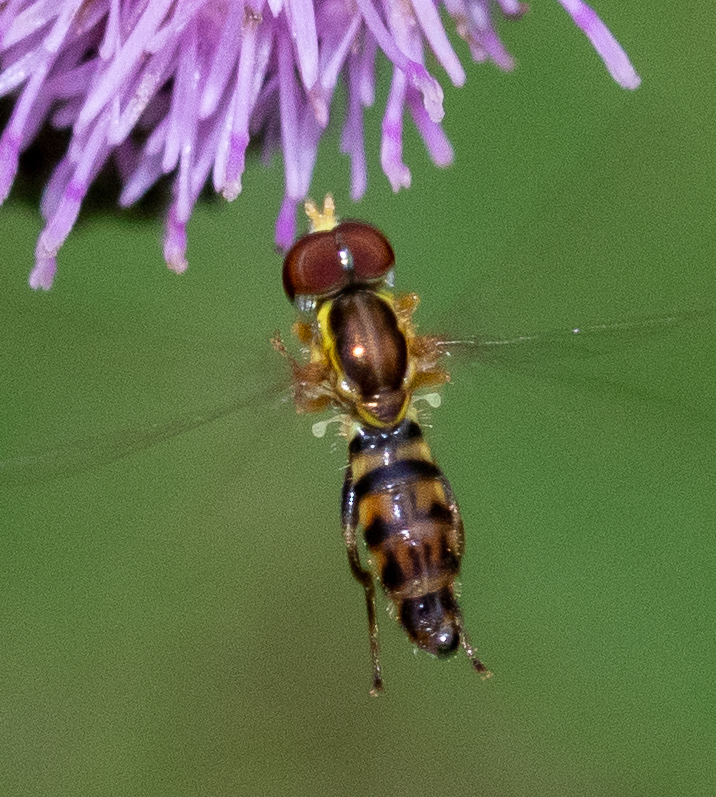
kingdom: Animalia
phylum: Arthropoda
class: Insecta
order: Diptera
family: Syrphidae
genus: Toxomerus
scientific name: Toxomerus geminatus
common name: Eastern calligrapher
